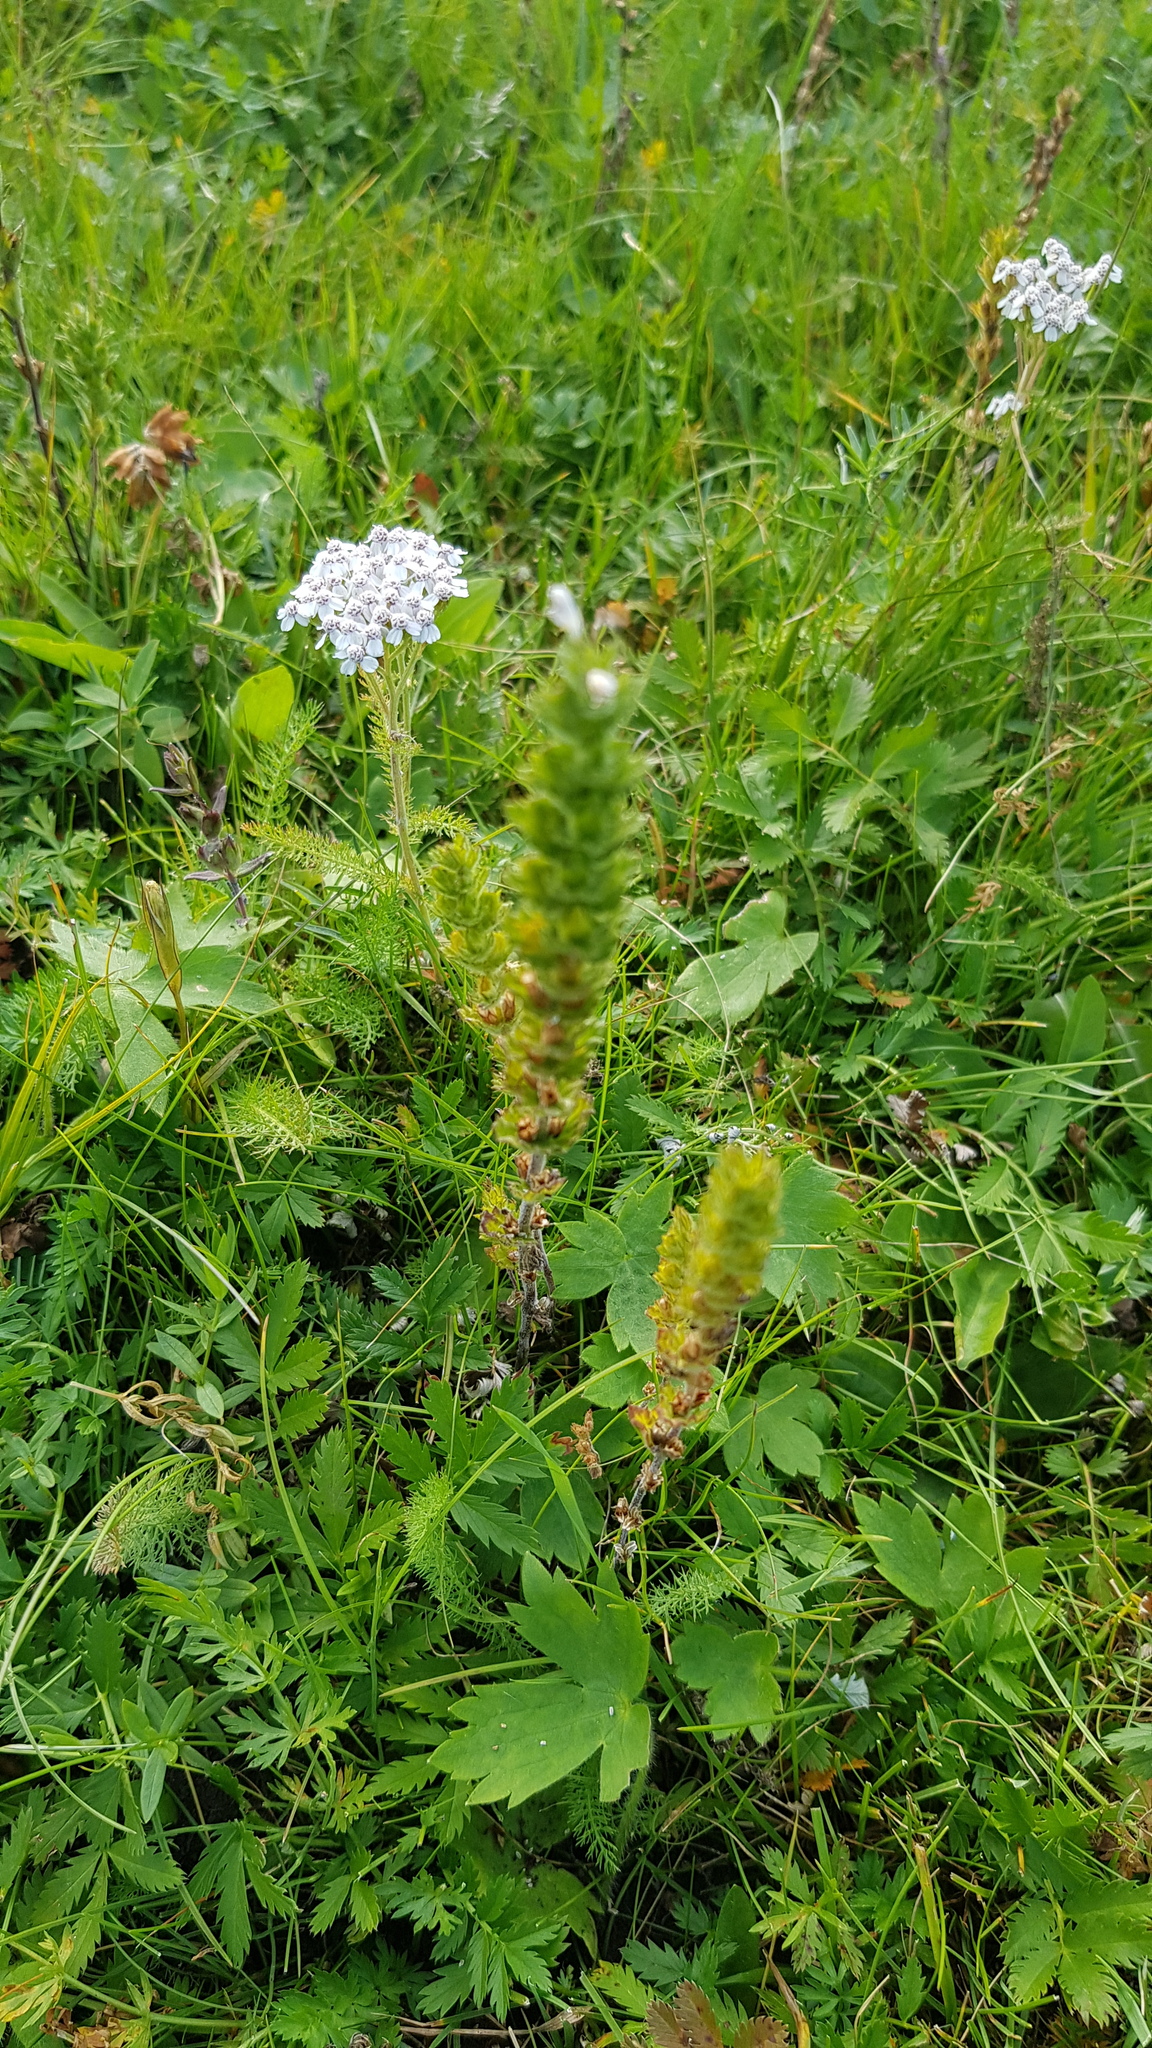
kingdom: Plantae
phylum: Tracheophyta
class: Magnoliopsida
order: Lamiales
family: Orobanchaceae
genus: Euphrasia
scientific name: Euphrasia pectinata
